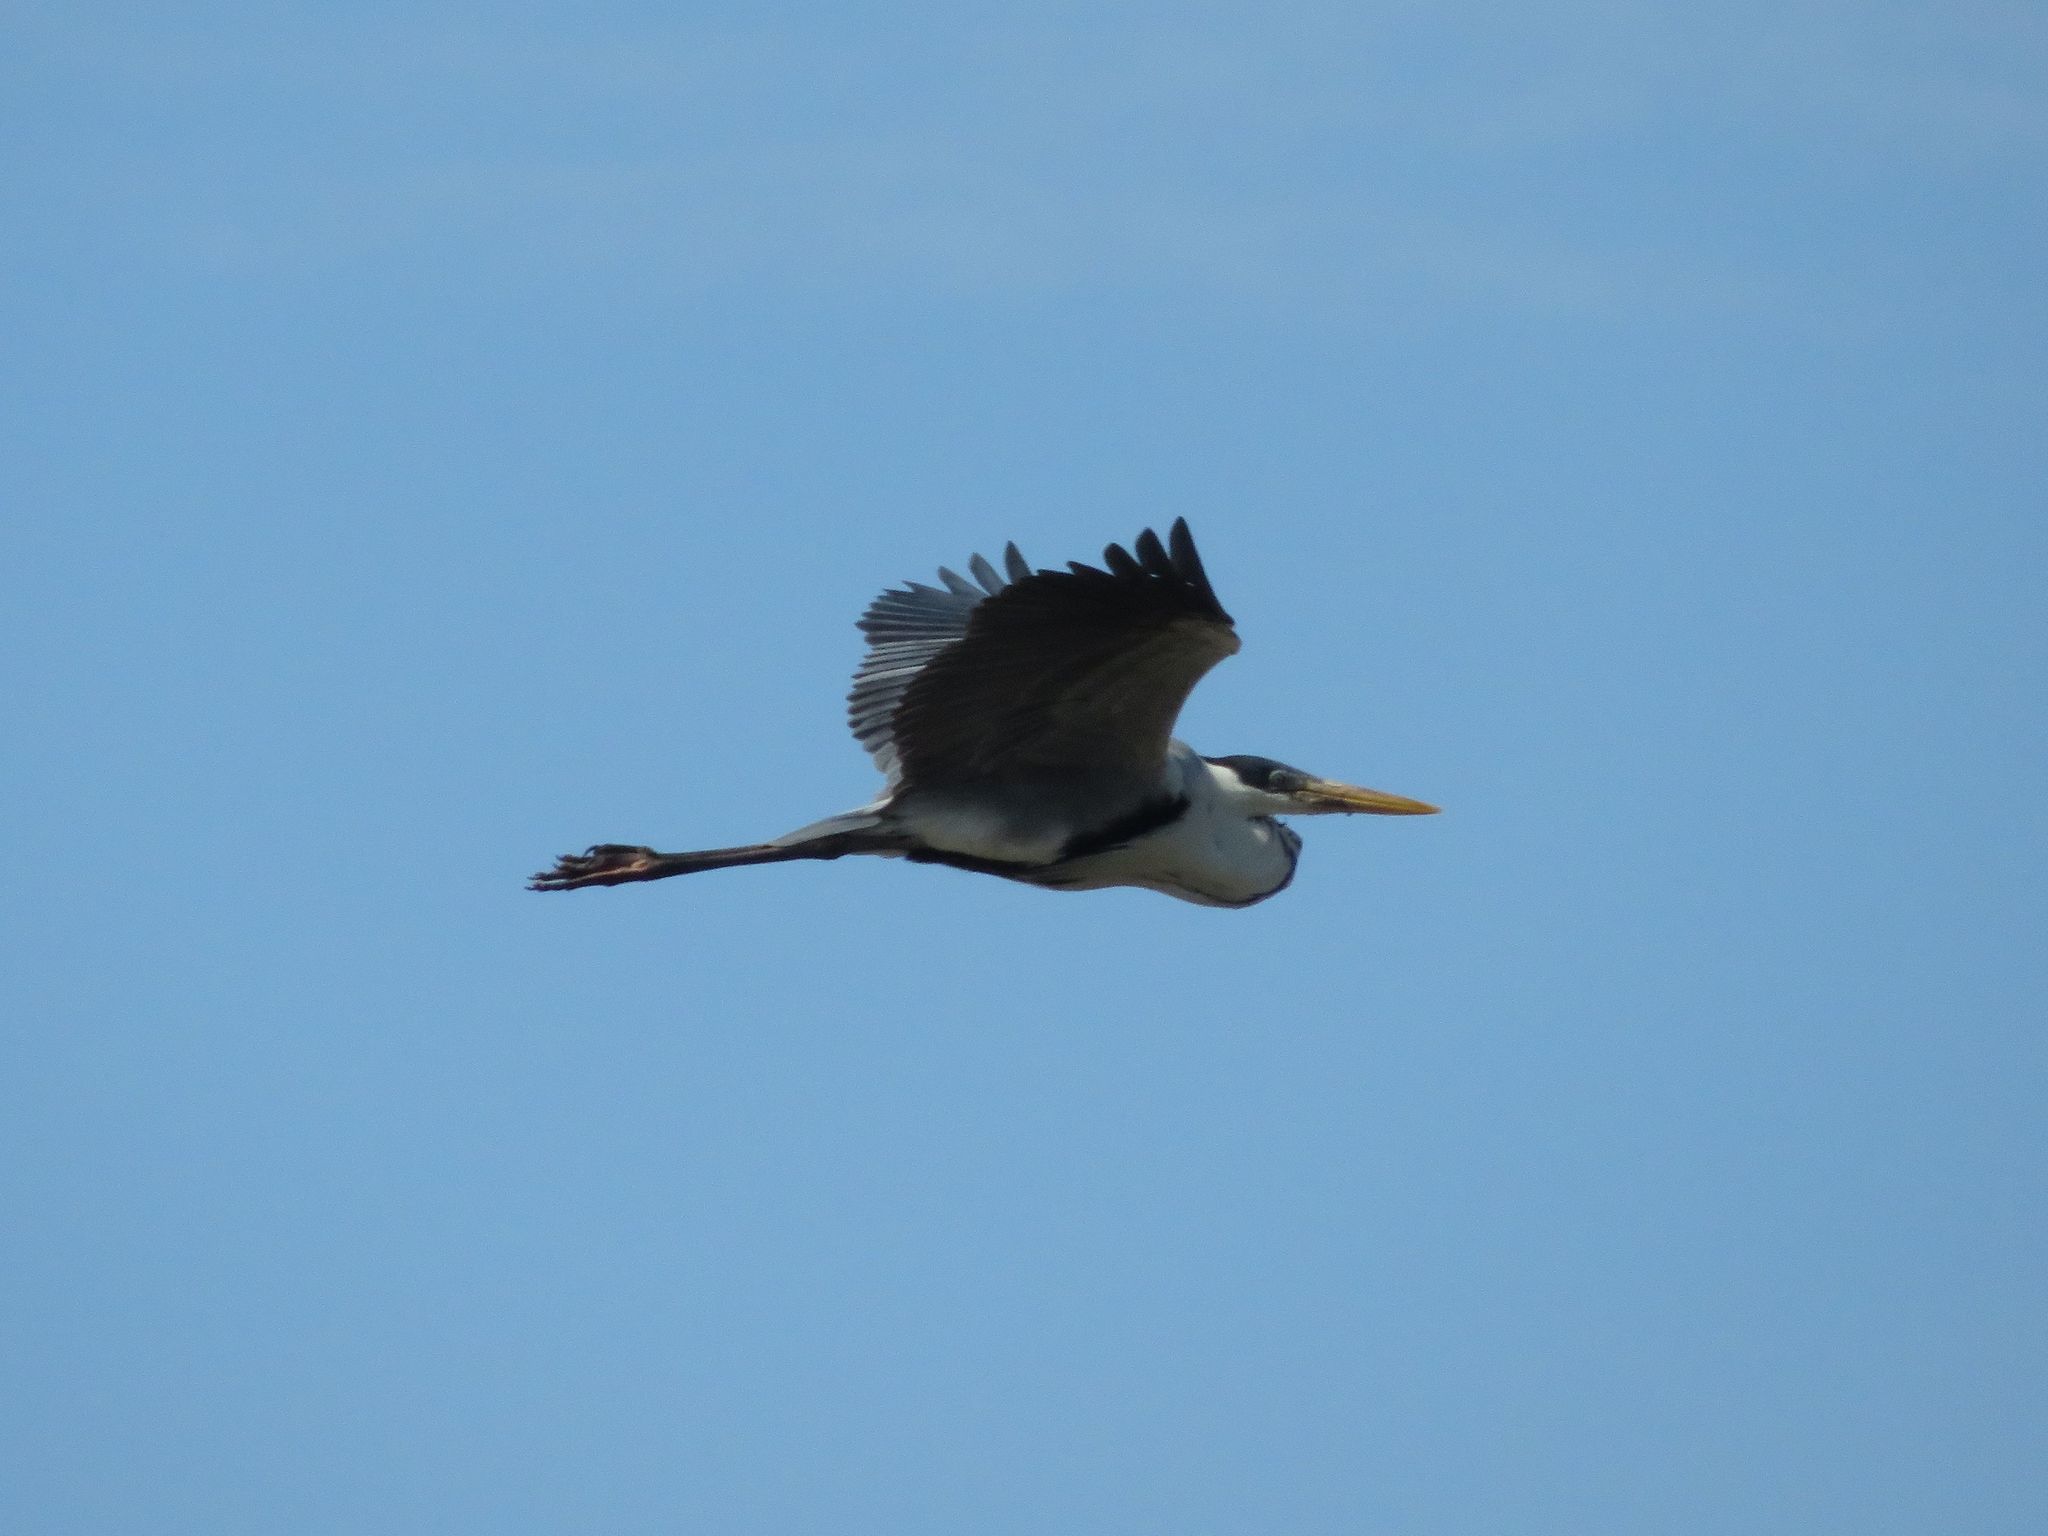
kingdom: Animalia
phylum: Chordata
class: Aves
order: Pelecaniformes
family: Ardeidae
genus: Ardea
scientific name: Ardea cocoi
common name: Cocoi heron
